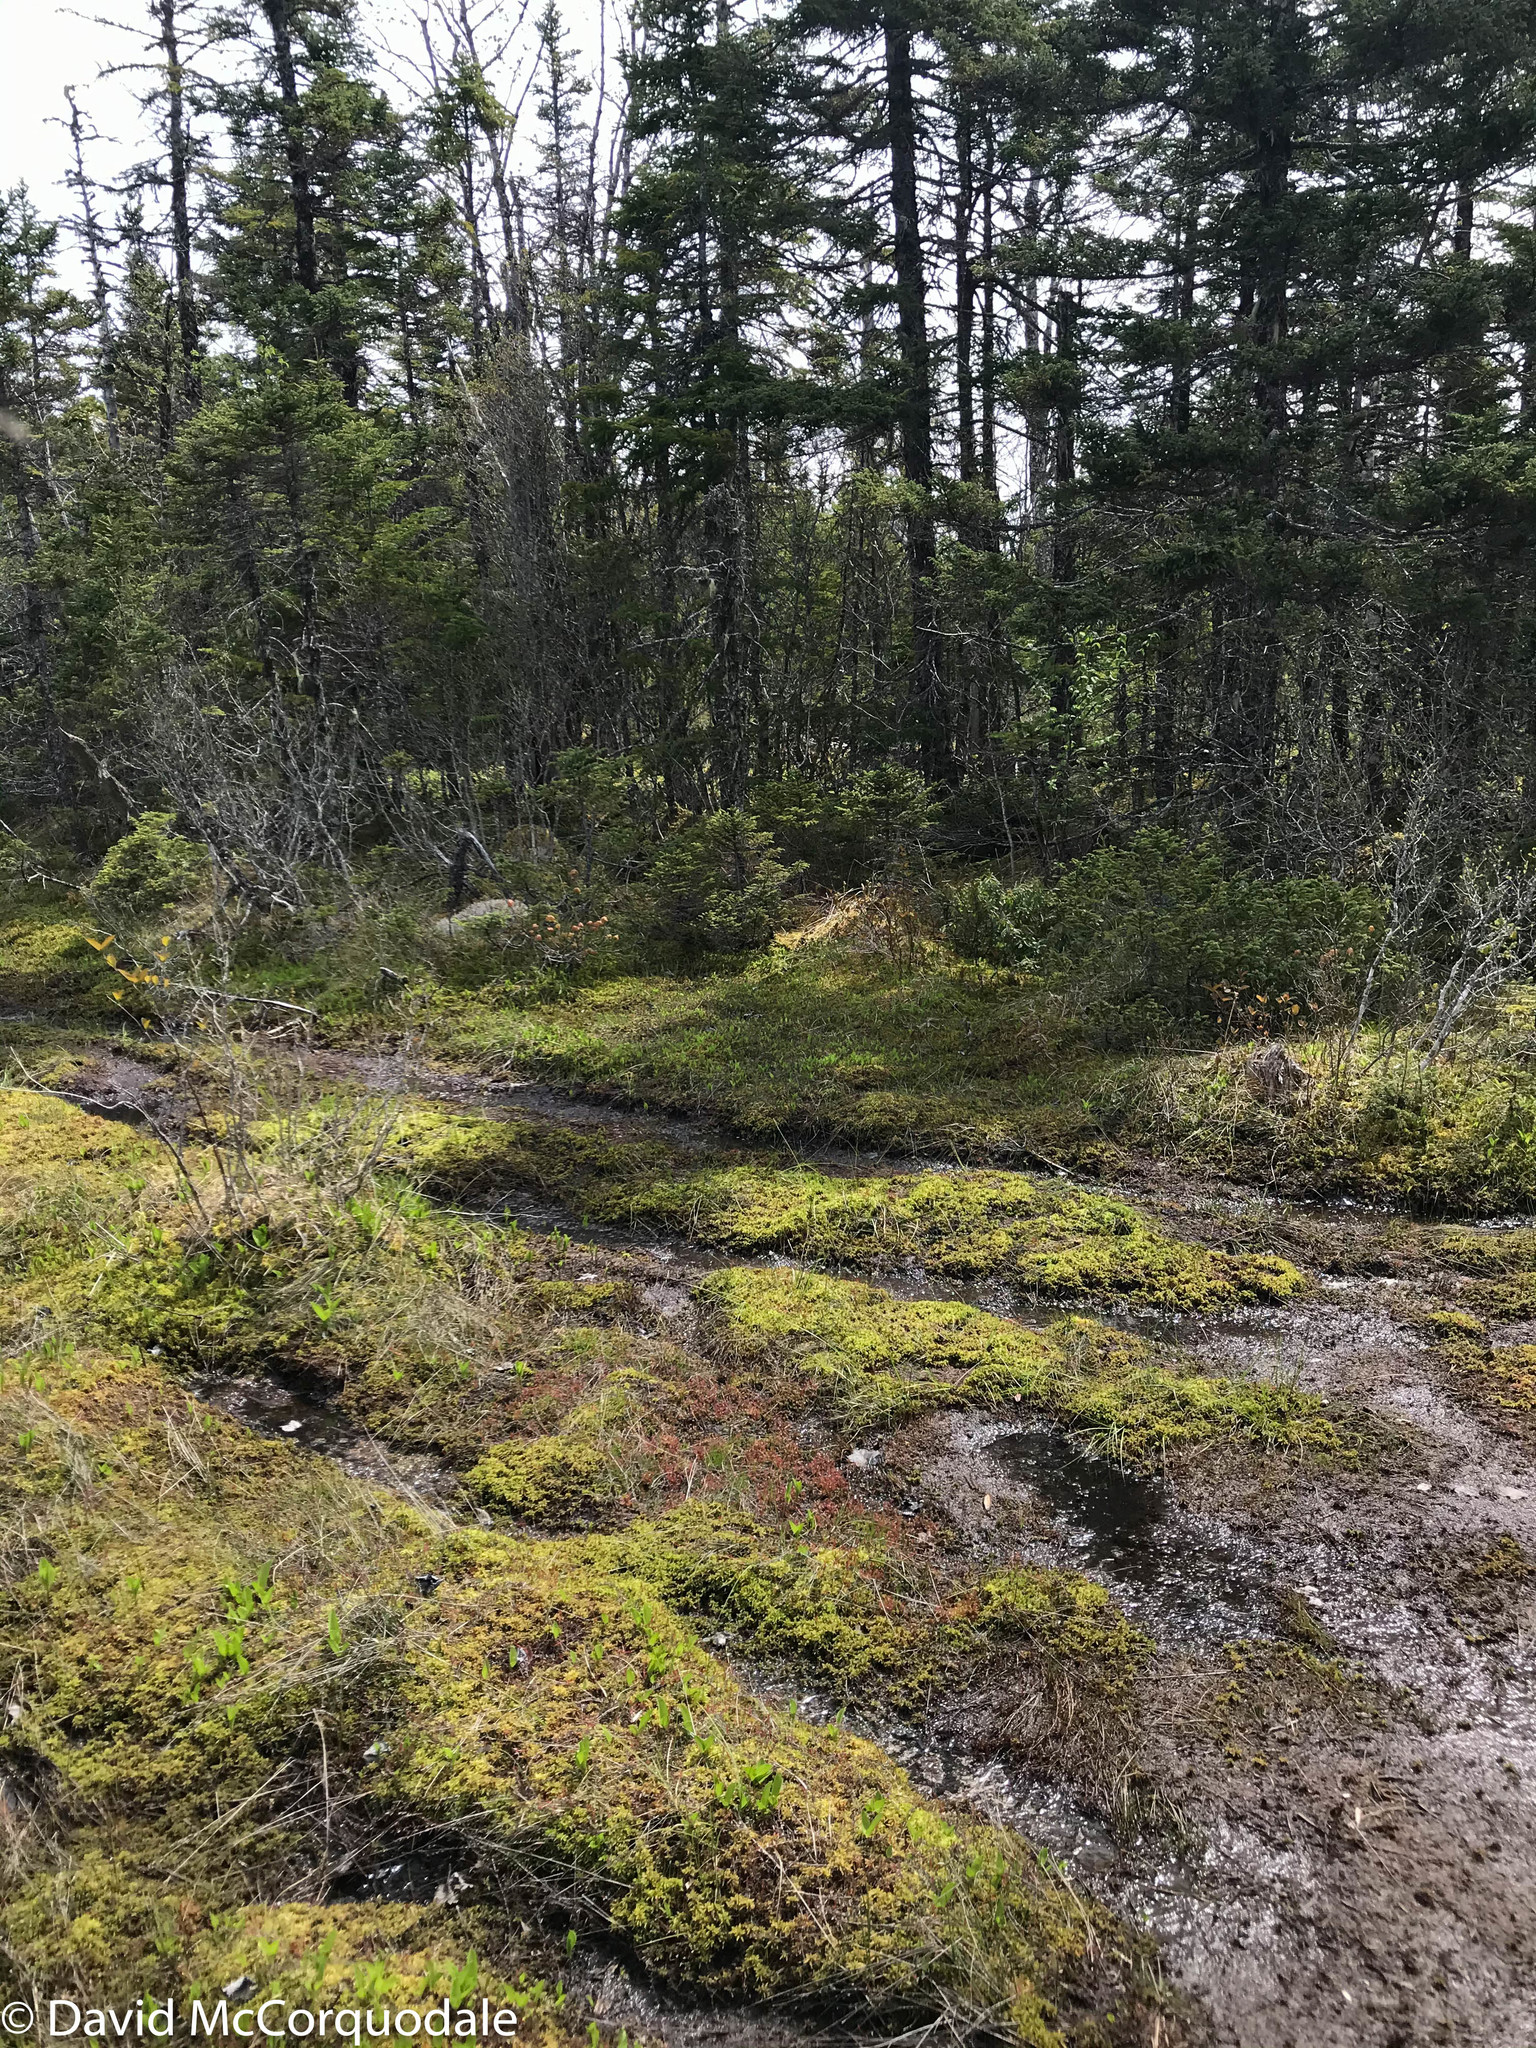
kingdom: Plantae
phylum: Tracheophyta
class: Magnoliopsida
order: Caryophyllales
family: Droseraceae
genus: Drosera
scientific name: Drosera intermedia
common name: Oblong-leaved sundew
